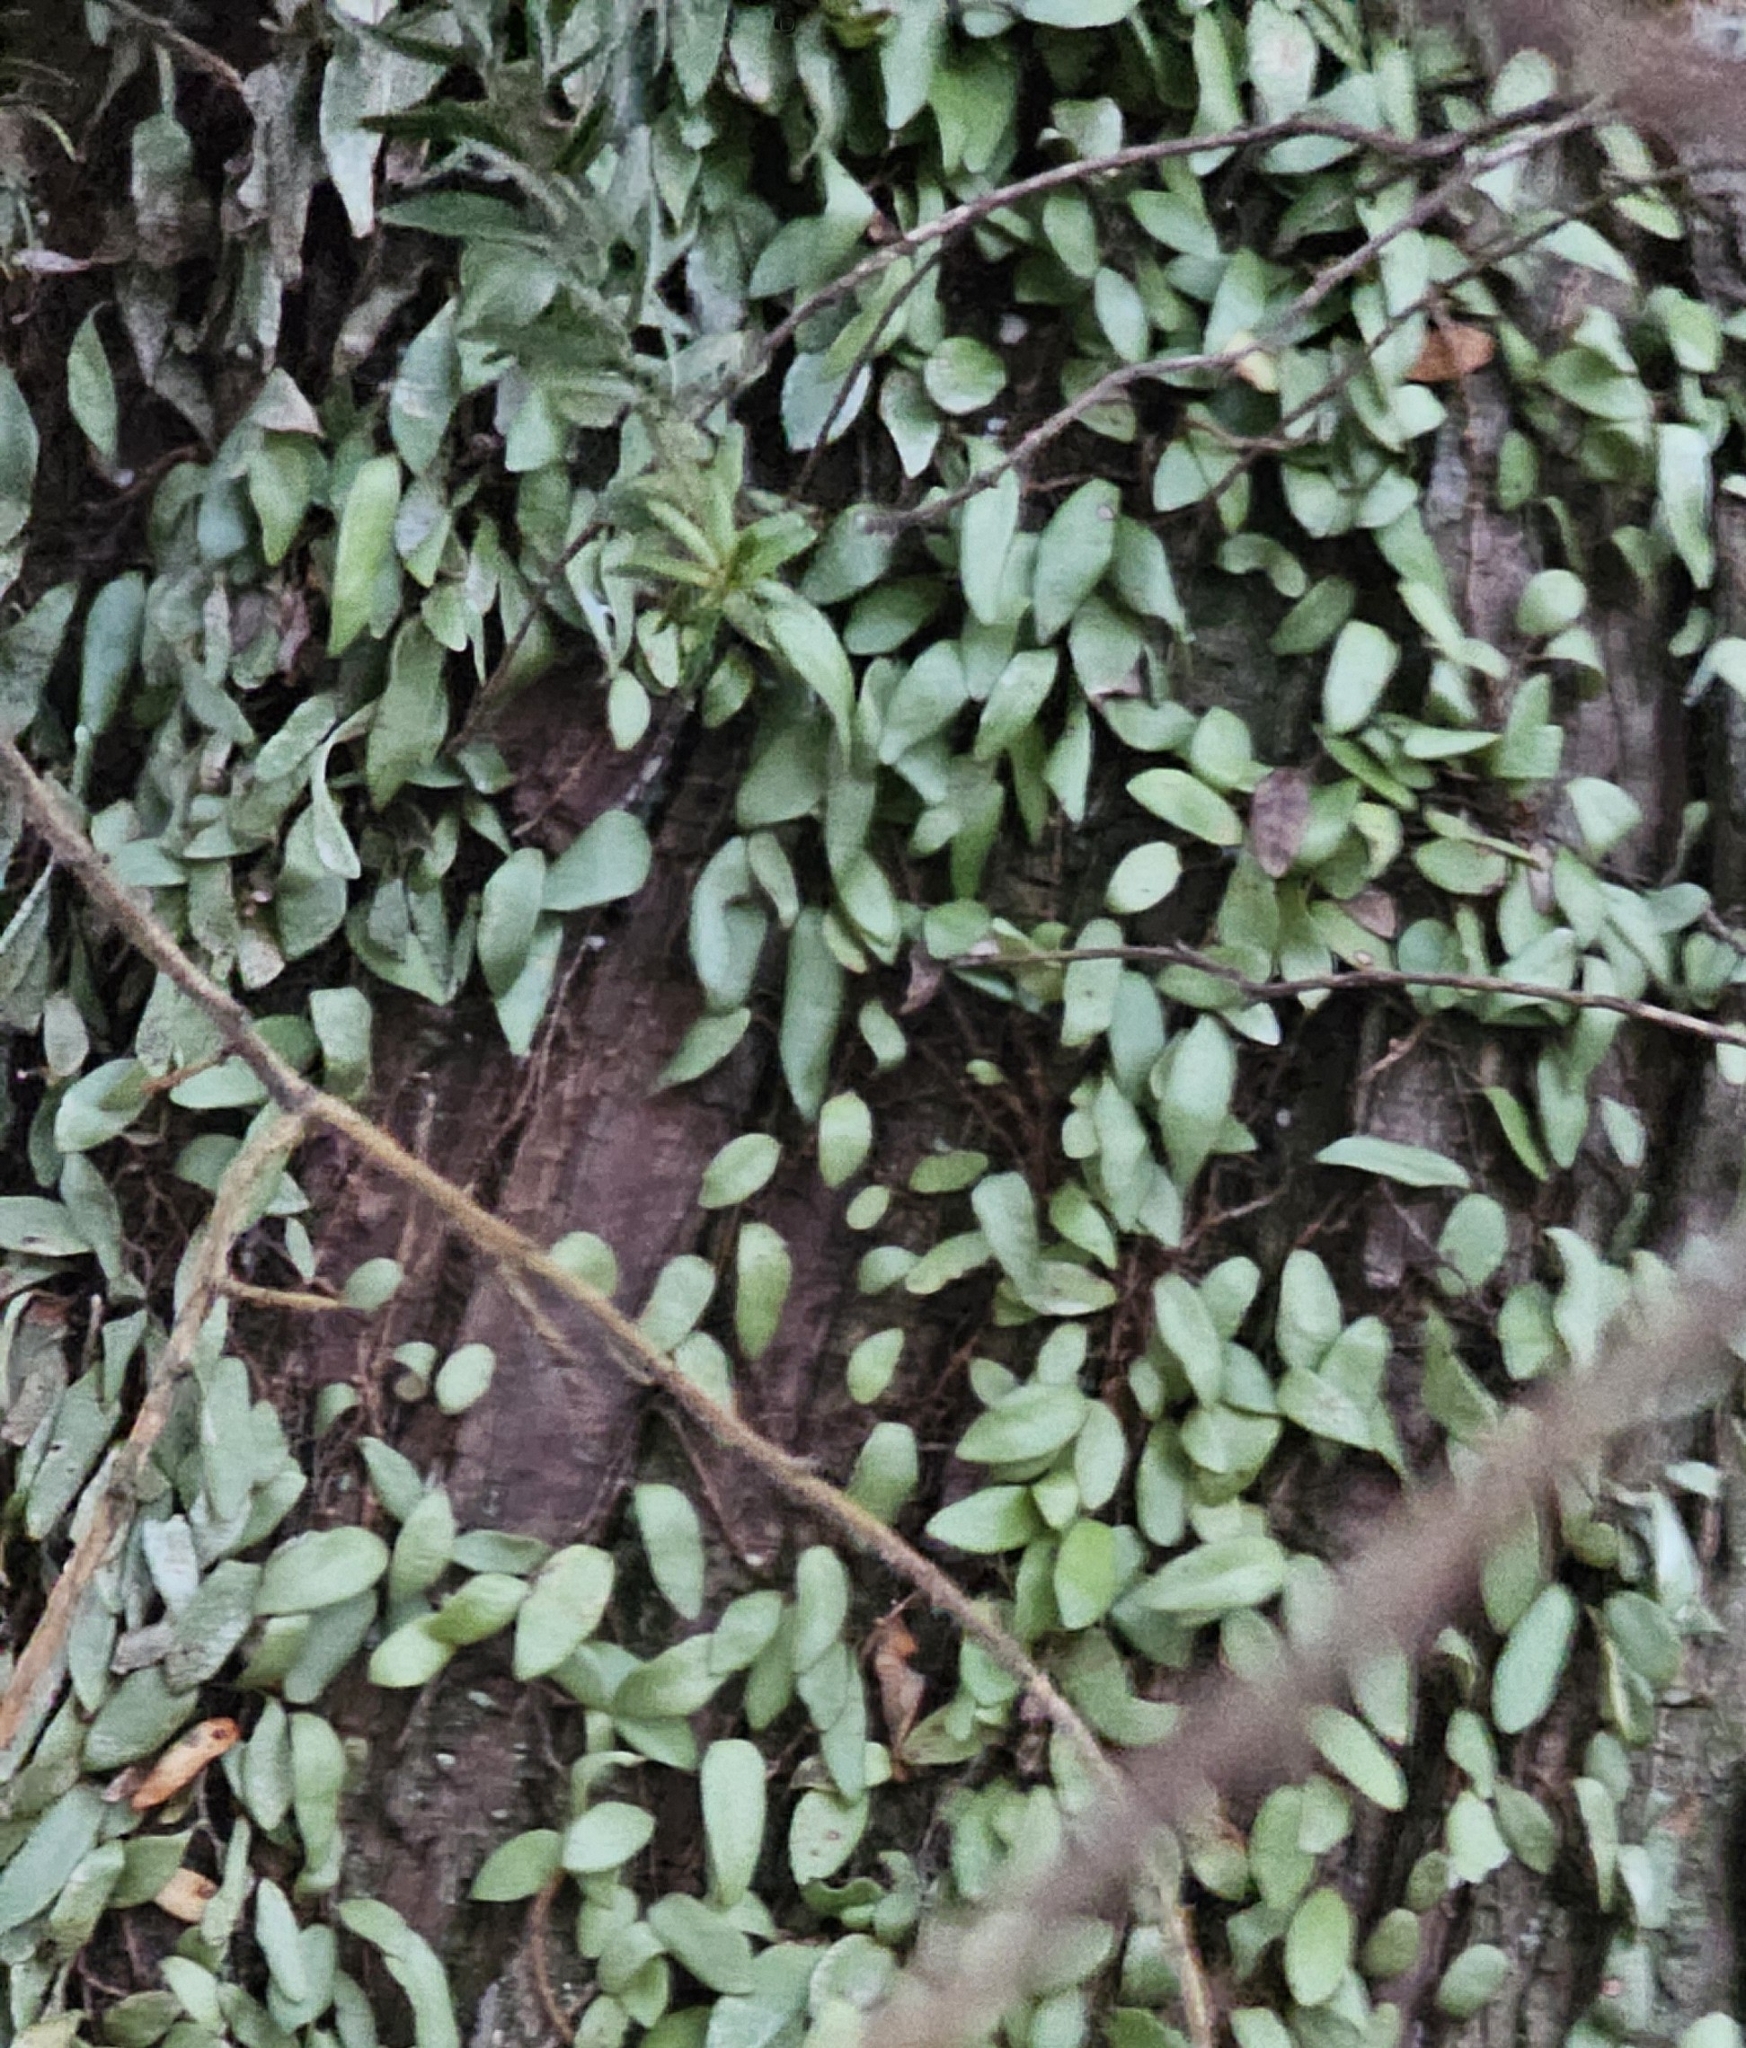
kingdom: Plantae
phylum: Tracheophyta
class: Polypodiopsida
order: Polypodiales
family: Polypodiaceae
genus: Pyrrosia
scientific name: Pyrrosia eleagnifolia
